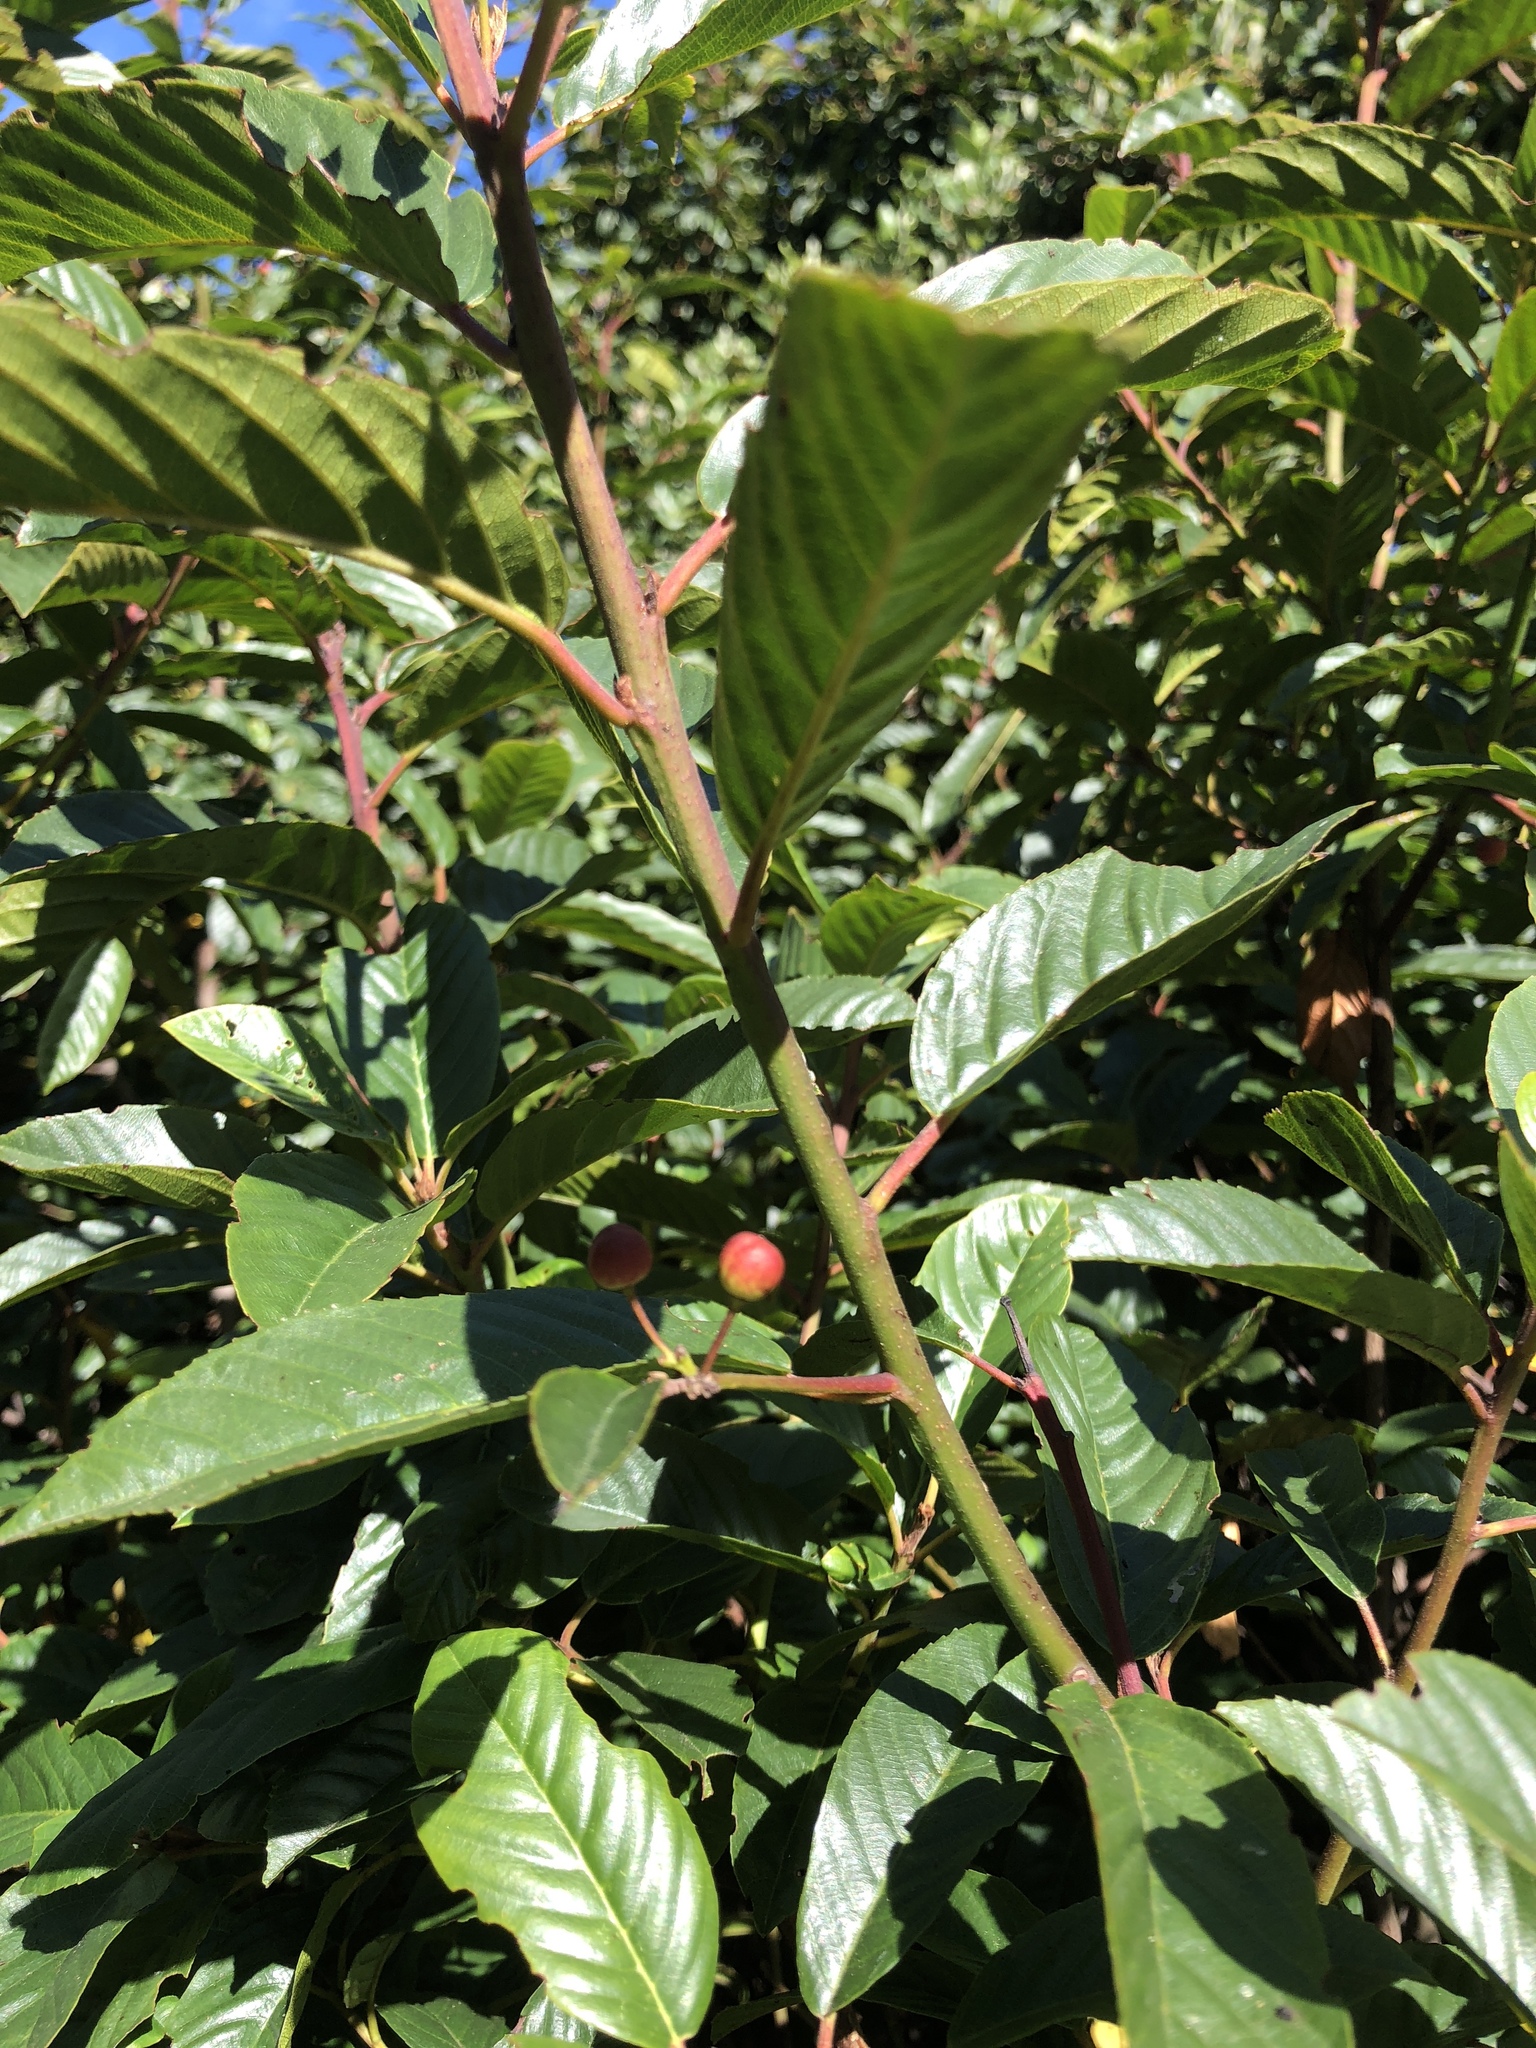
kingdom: Plantae
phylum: Tracheophyta
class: Magnoliopsida
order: Rosales
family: Rhamnaceae
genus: Frangula
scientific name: Frangula californica
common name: California buckthorn
